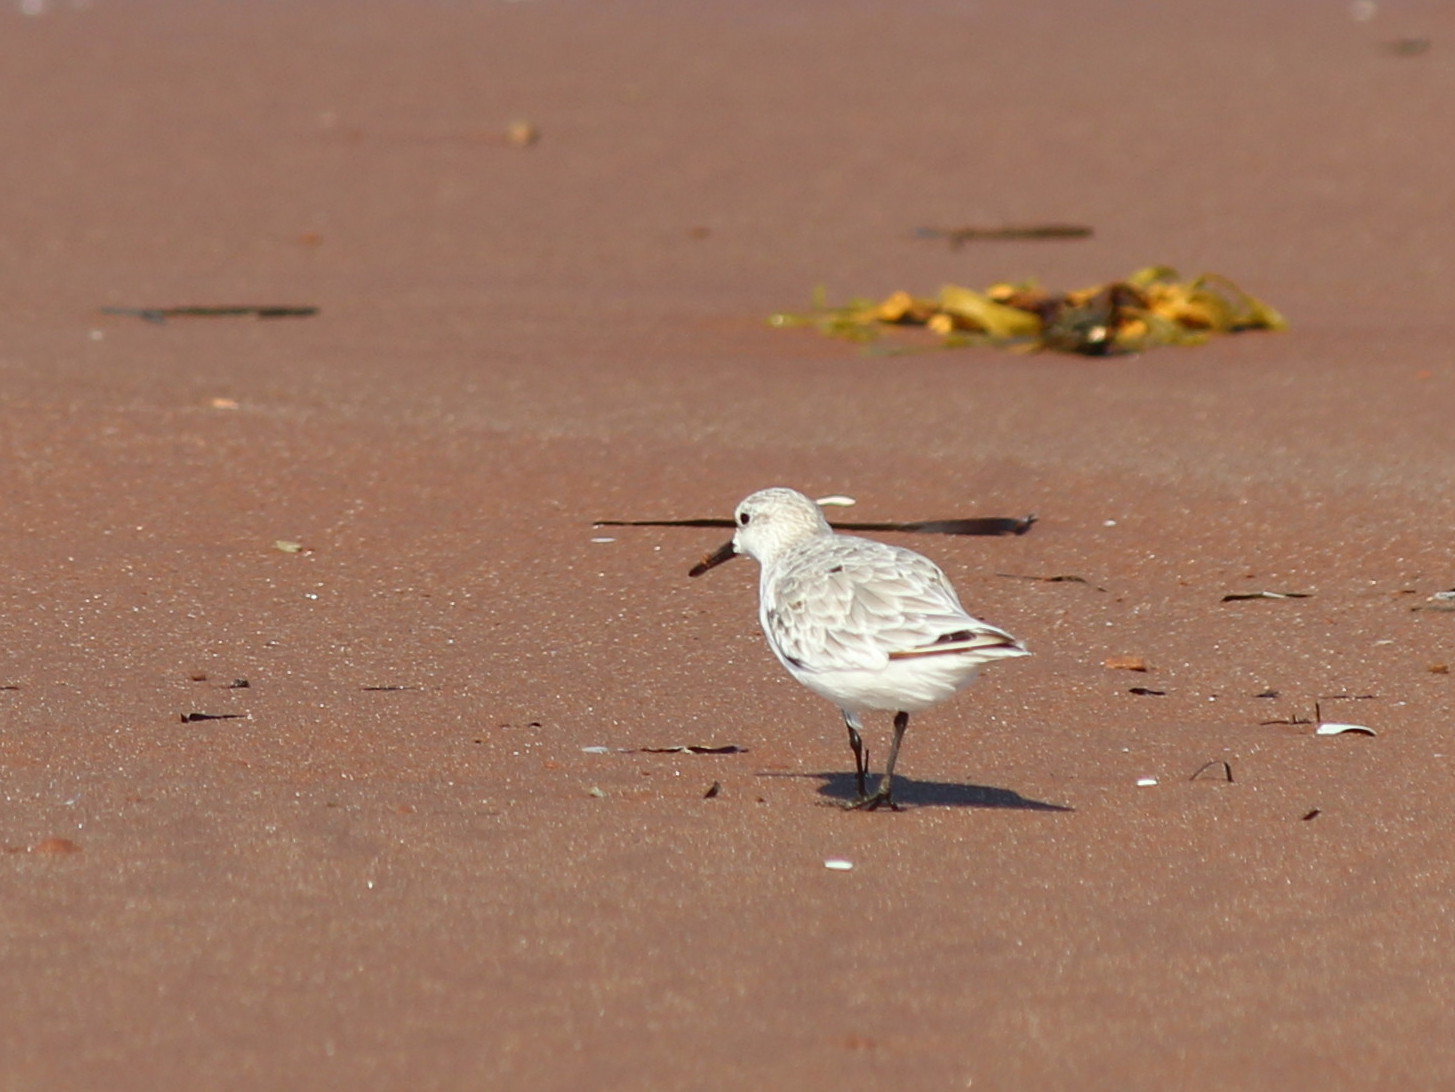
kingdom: Animalia
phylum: Chordata
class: Aves
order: Charadriiformes
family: Scolopacidae
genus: Calidris
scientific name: Calidris alba
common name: Sanderling
